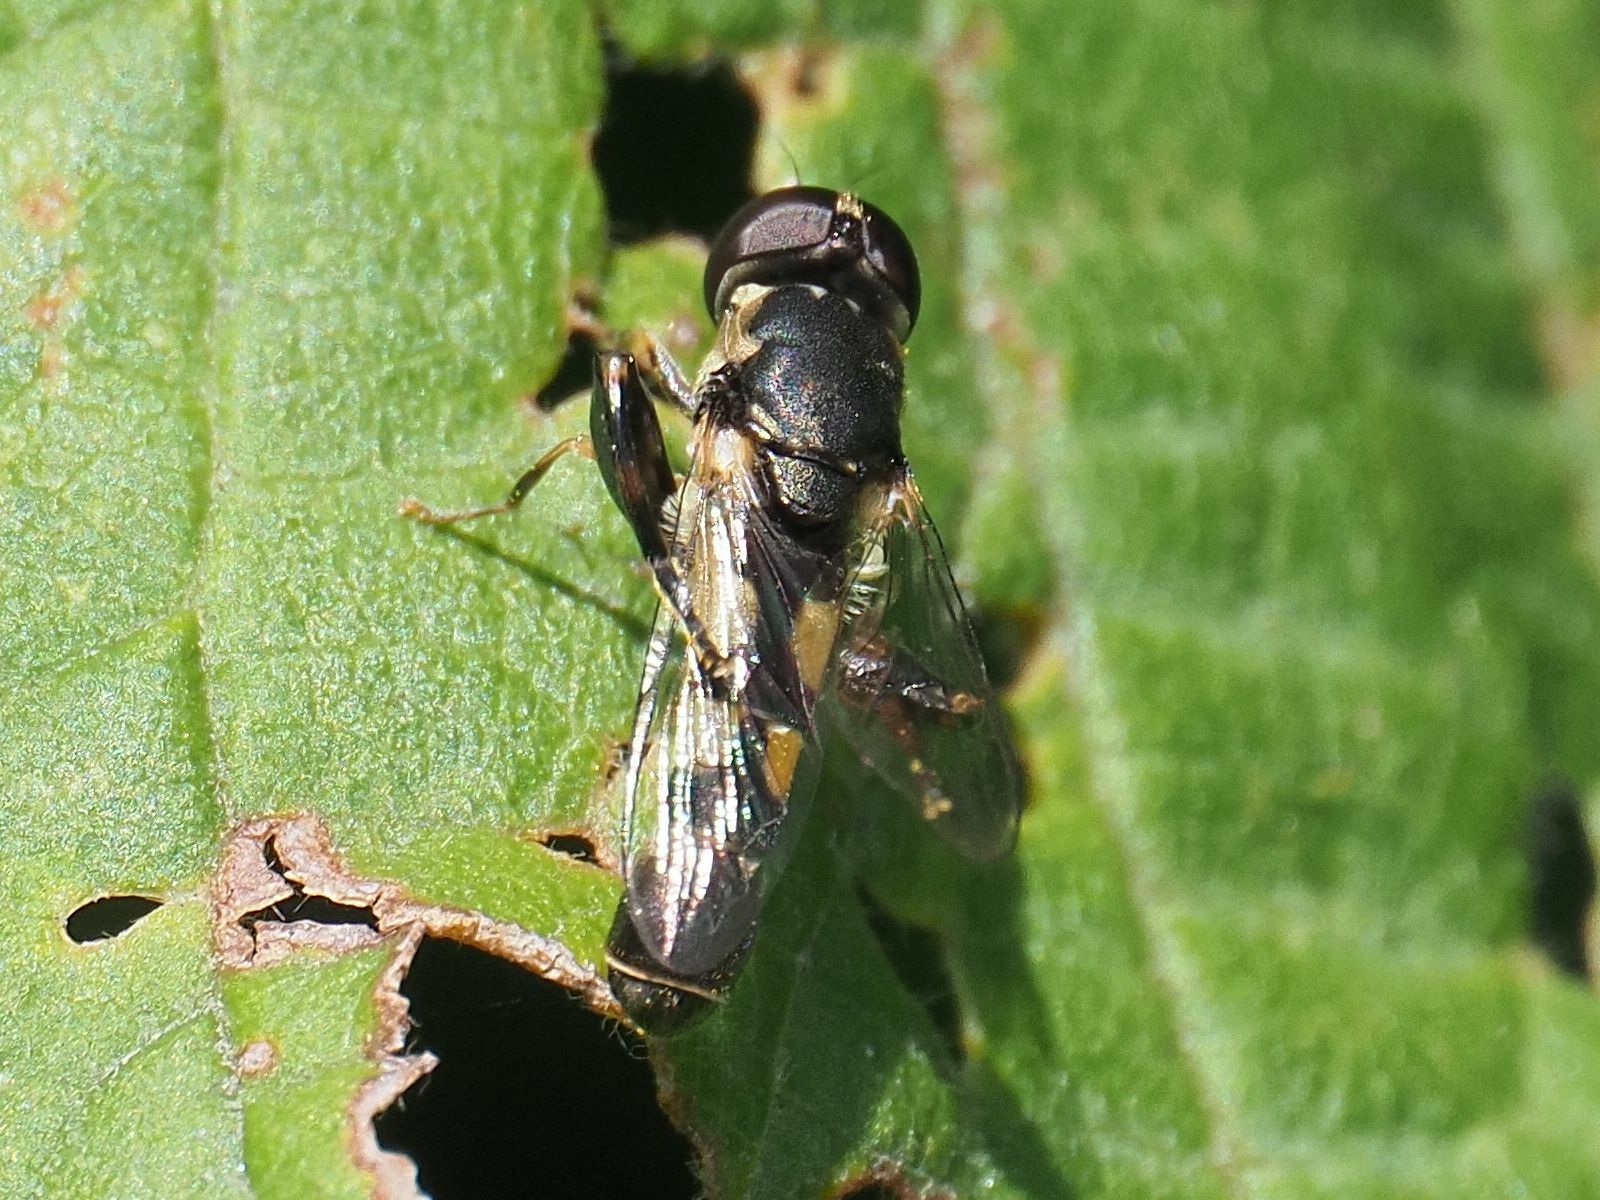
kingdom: Animalia
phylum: Arthropoda
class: Insecta
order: Diptera
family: Syrphidae
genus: Syritta
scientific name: Syritta pipiens
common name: Hover fly
